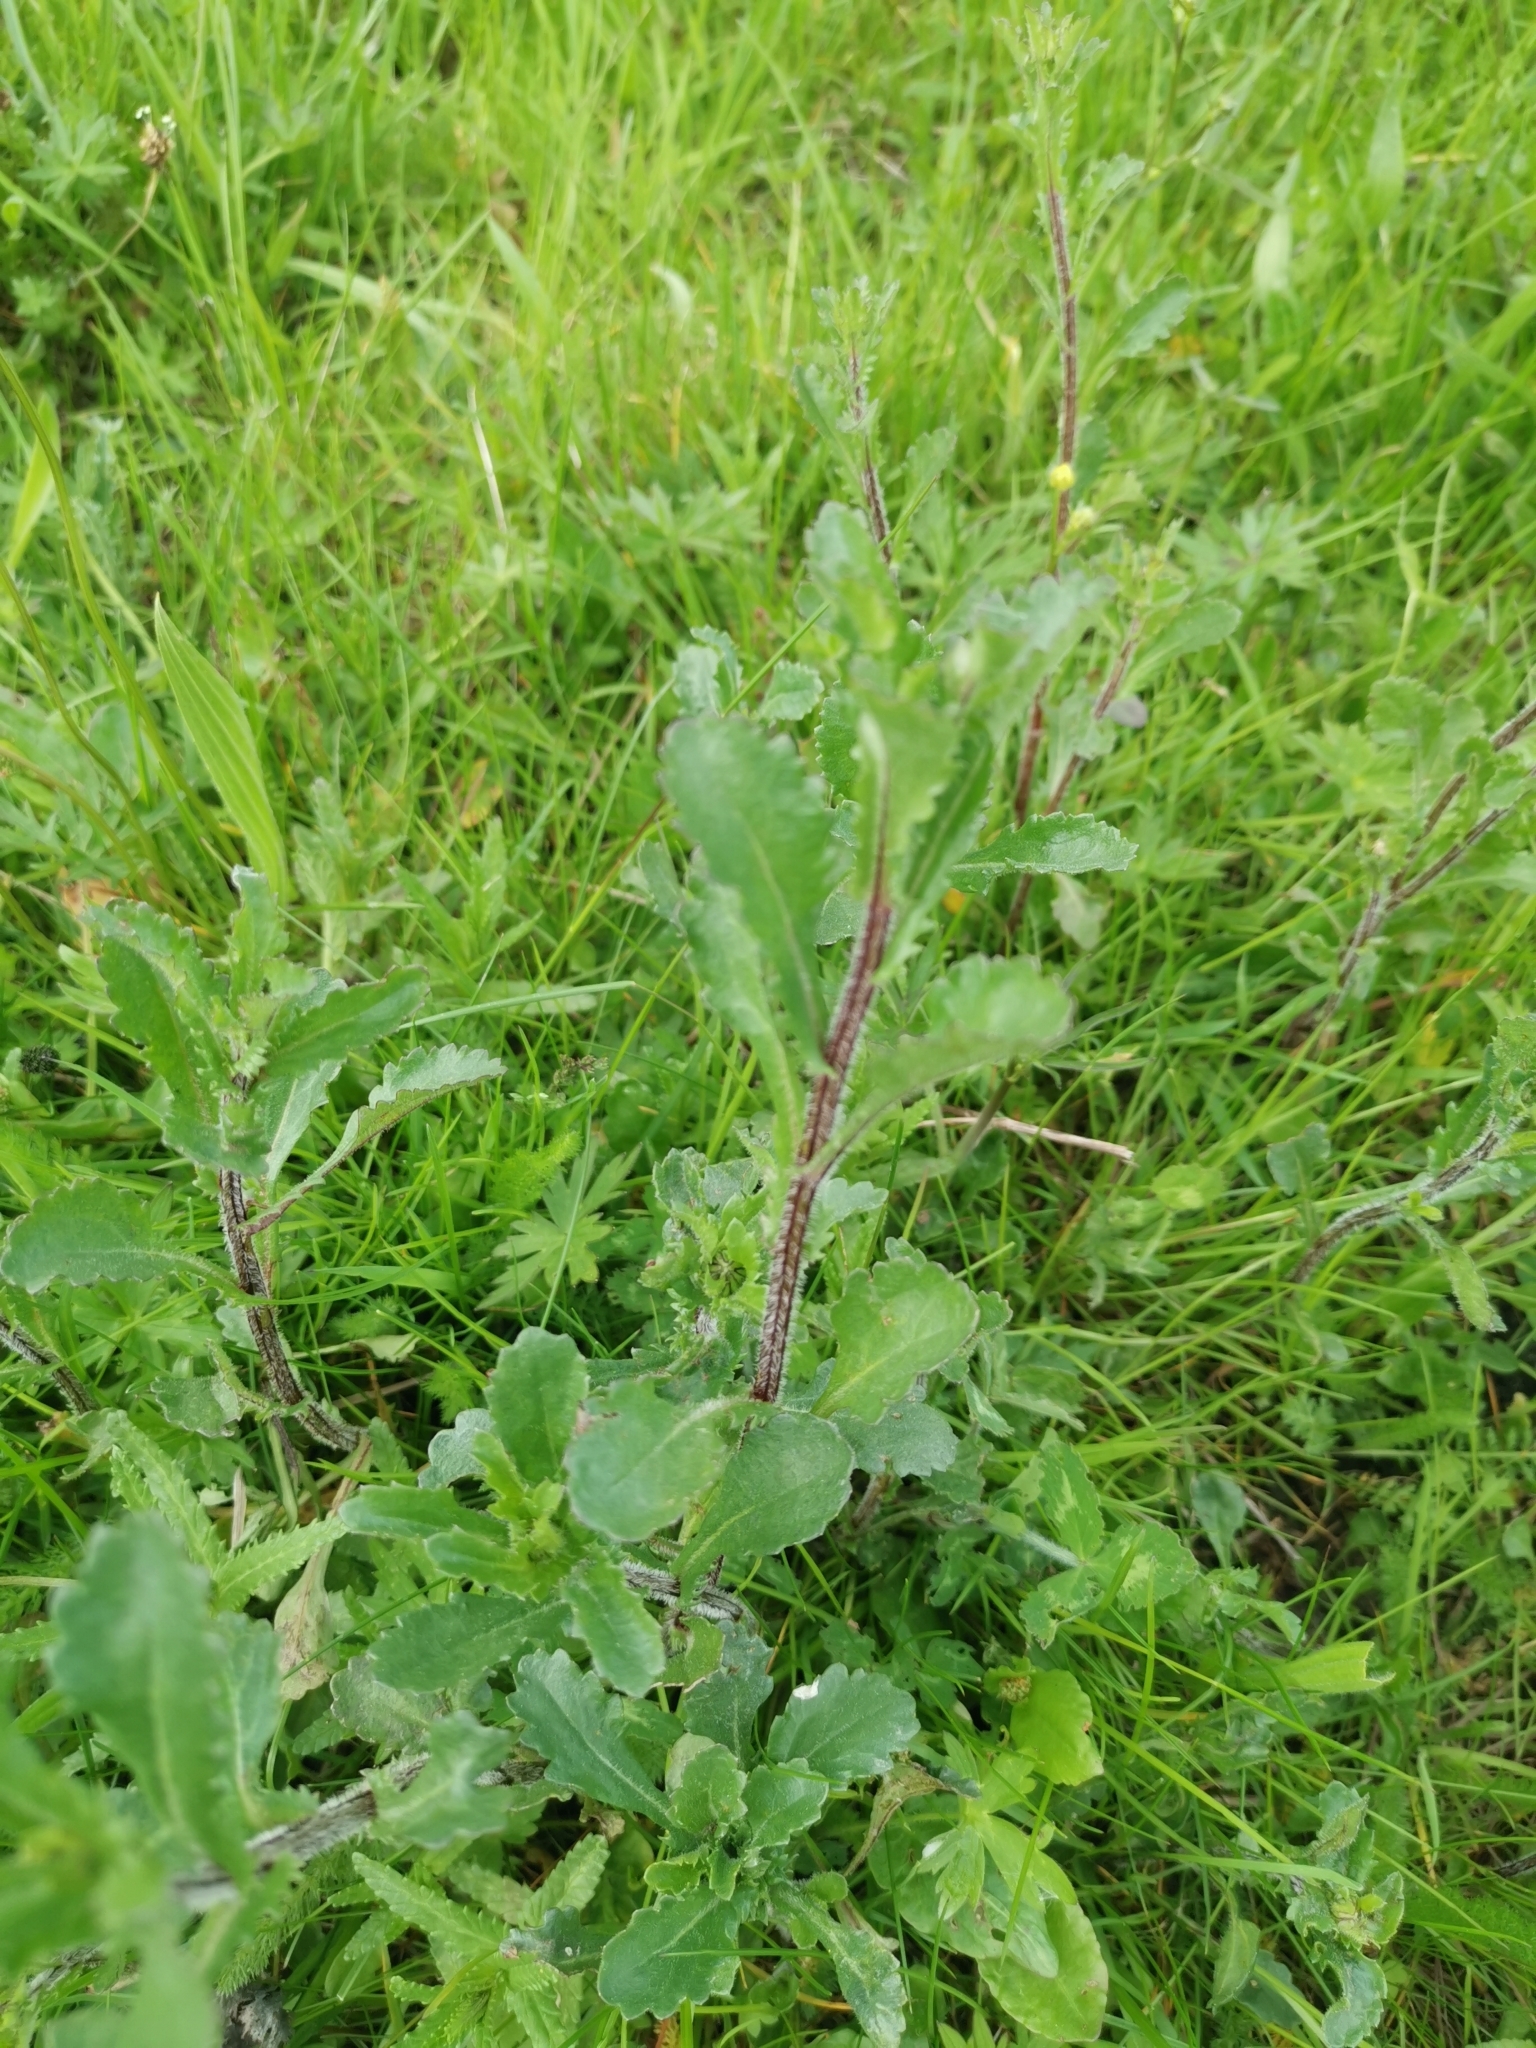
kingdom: Plantae
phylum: Tracheophyta
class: Magnoliopsida
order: Asterales
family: Asteraceae
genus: Leucanthemum
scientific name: Leucanthemum vulgare
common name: Oxeye daisy
